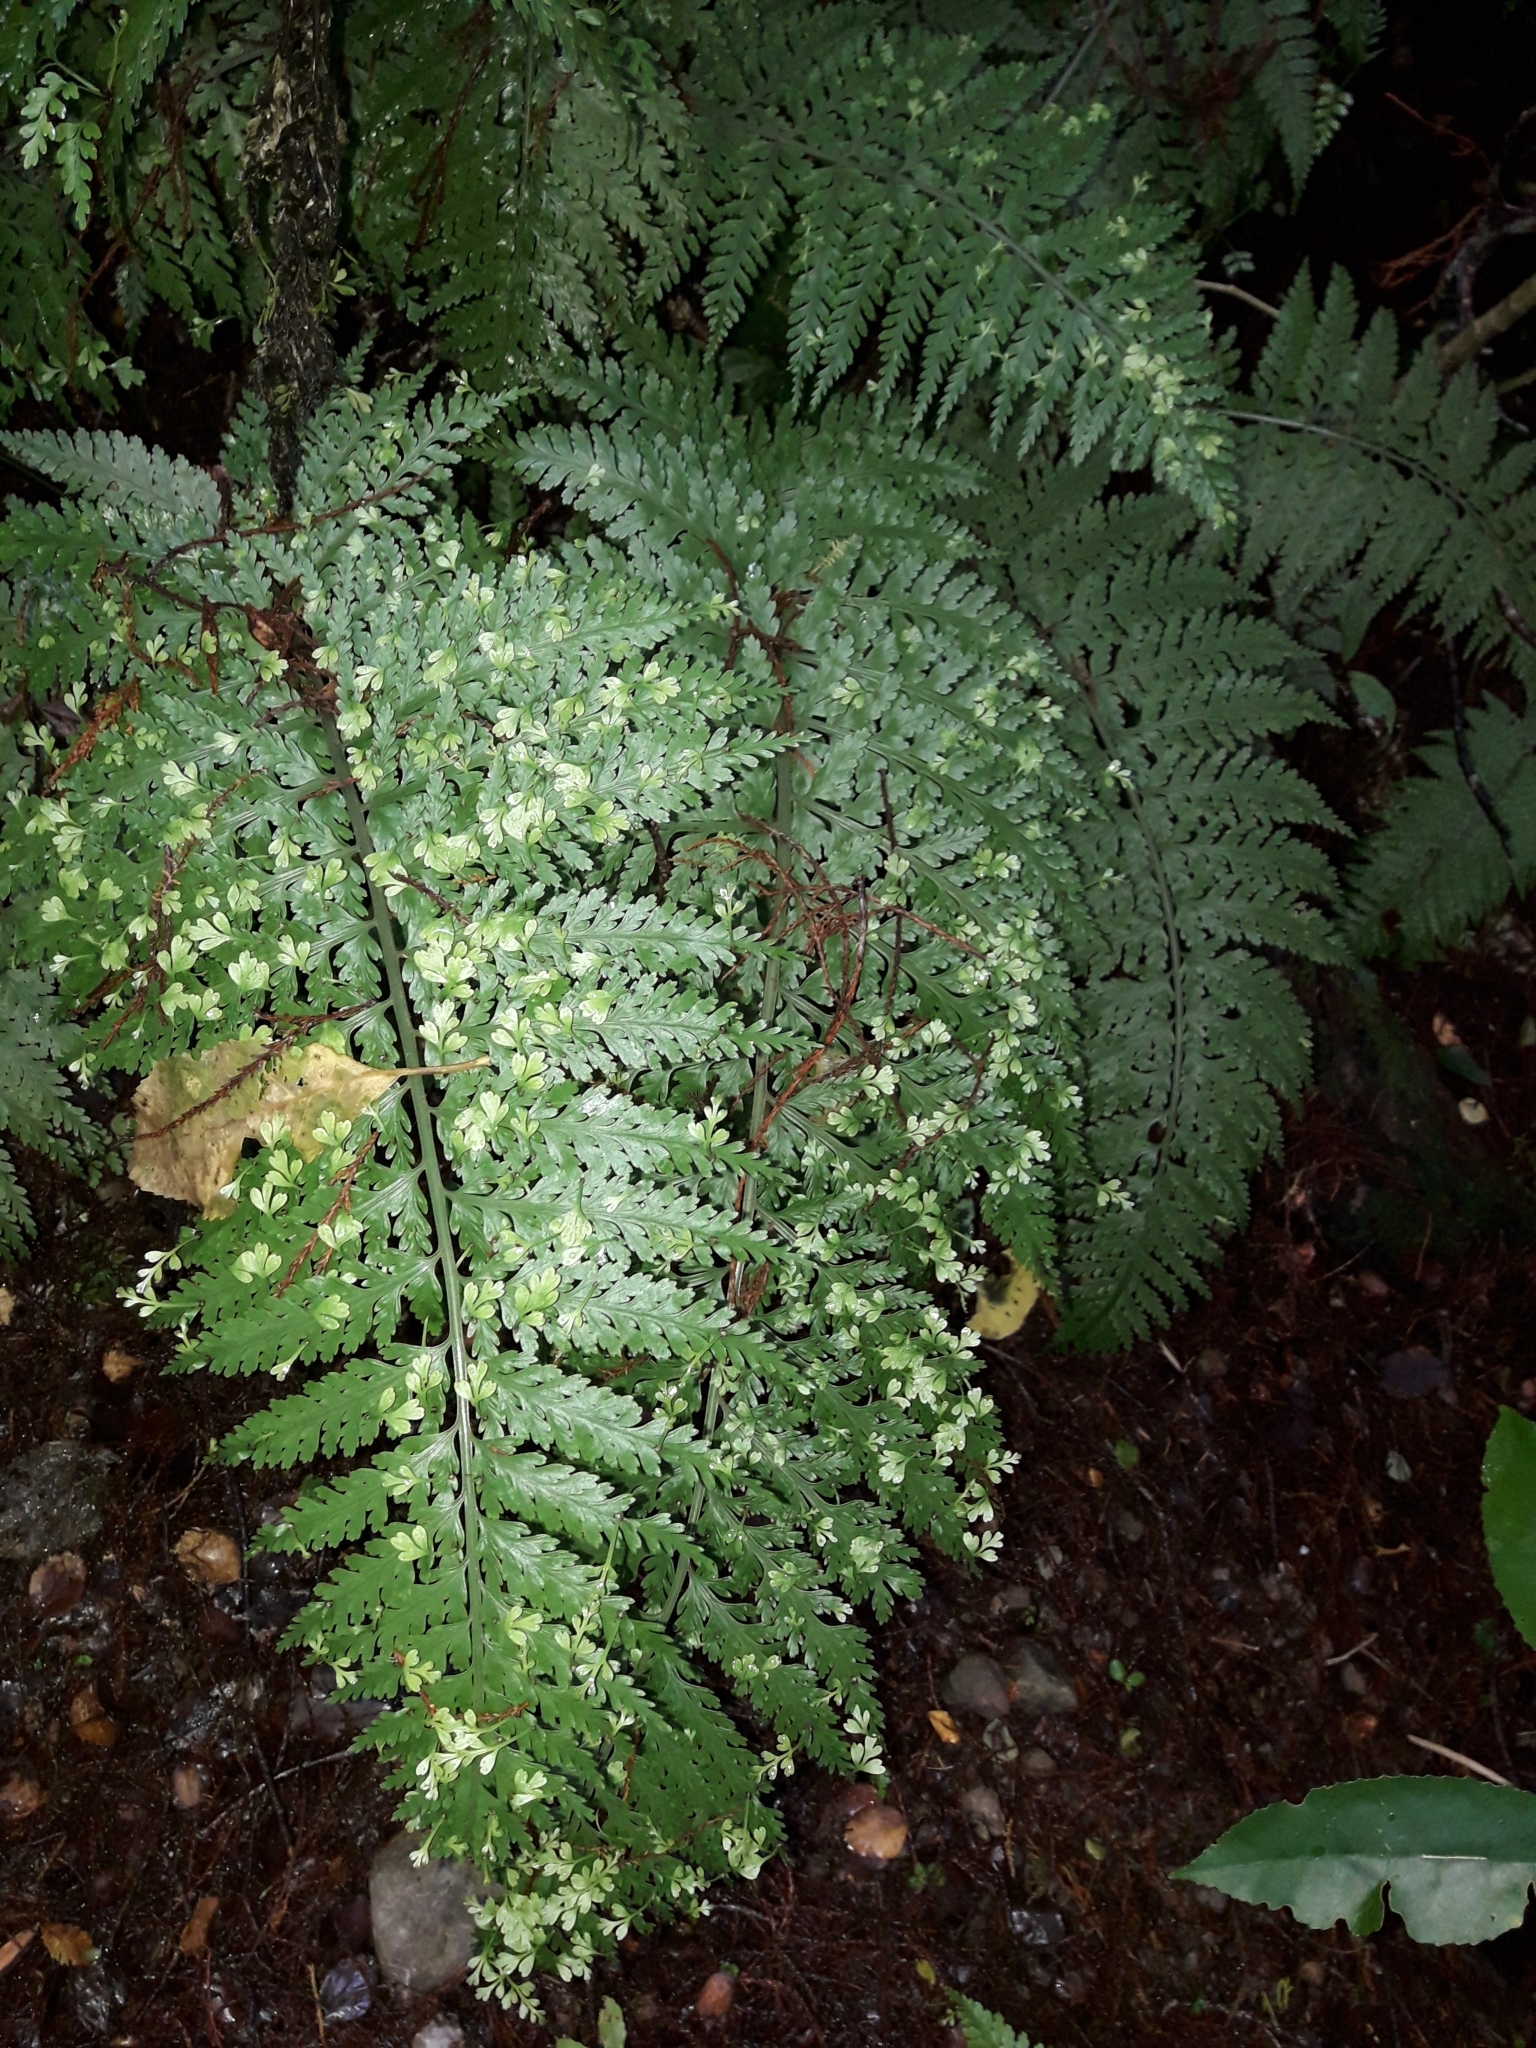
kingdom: Plantae
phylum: Tracheophyta
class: Polypodiopsida
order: Polypodiales
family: Aspleniaceae
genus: Asplenium
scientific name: Asplenium bulbiferum
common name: Mother fern
